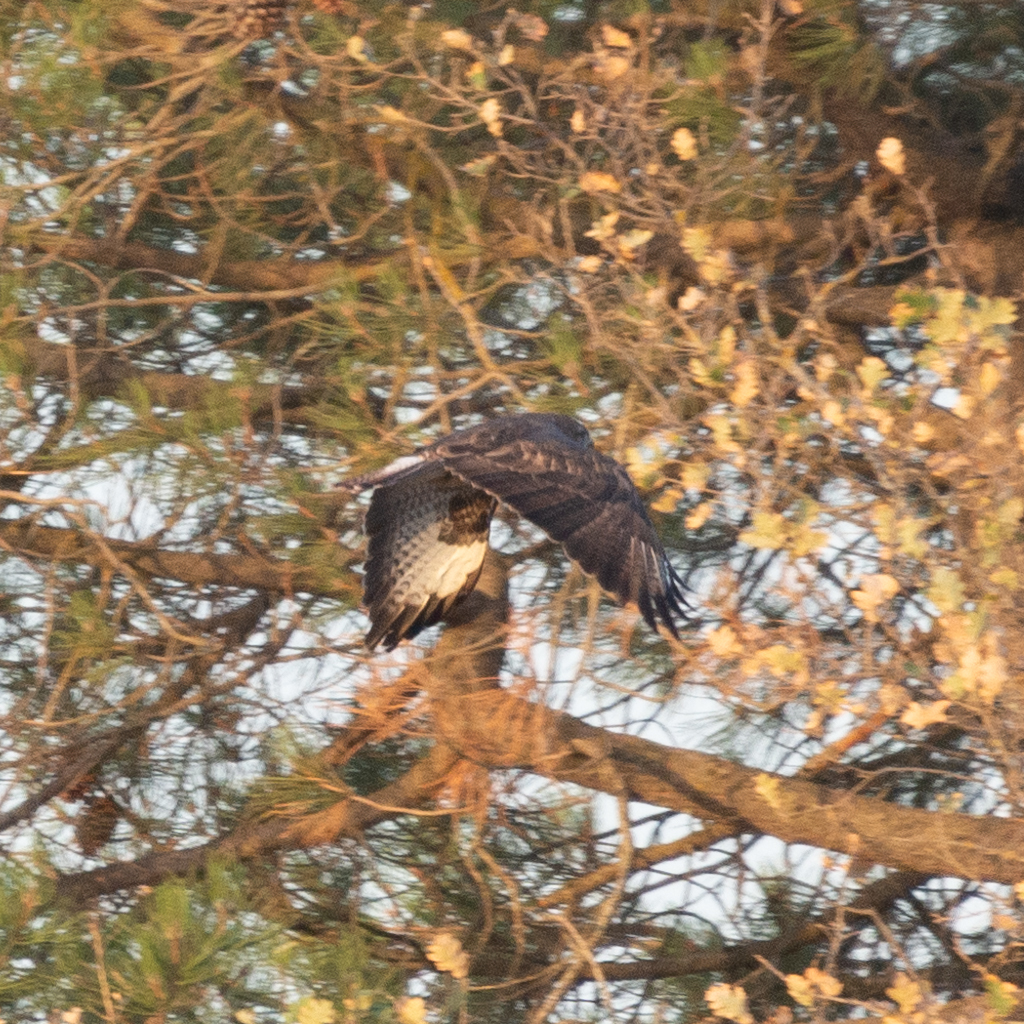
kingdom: Animalia
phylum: Chordata
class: Aves
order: Accipitriformes
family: Accipitridae
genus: Buteo
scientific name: Buteo buteo
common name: Common buzzard
